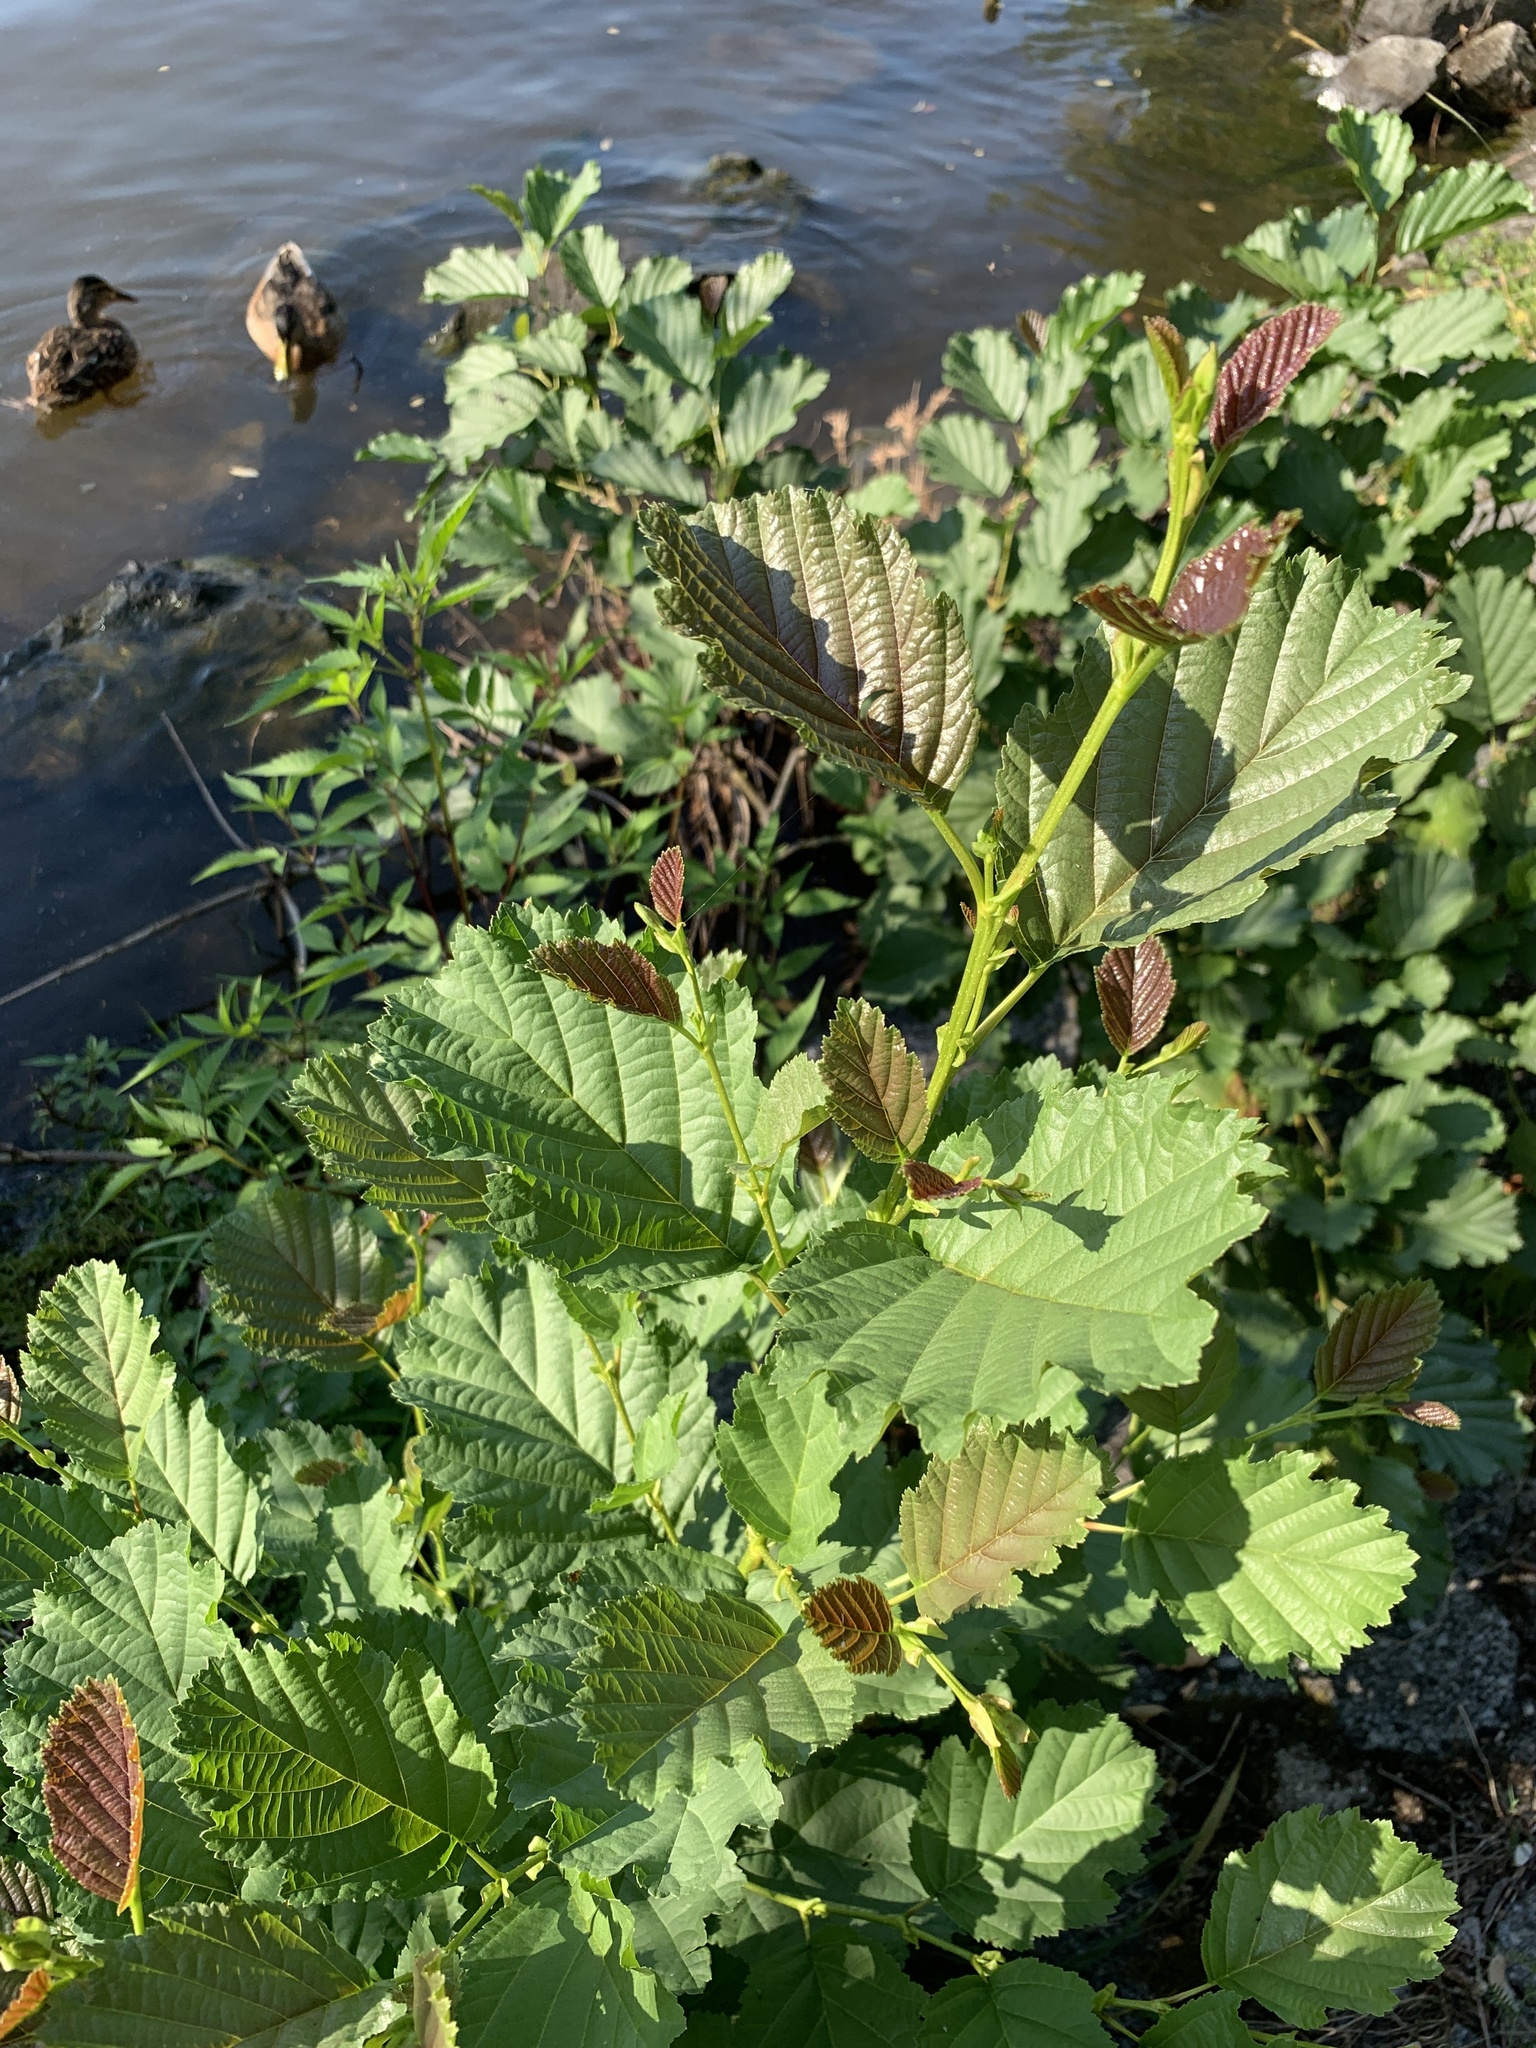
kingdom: Plantae
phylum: Tracheophyta
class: Magnoliopsida
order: Fagales
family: Betulaceae
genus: Alnus
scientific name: Alnus glutinosa
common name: Black alder
